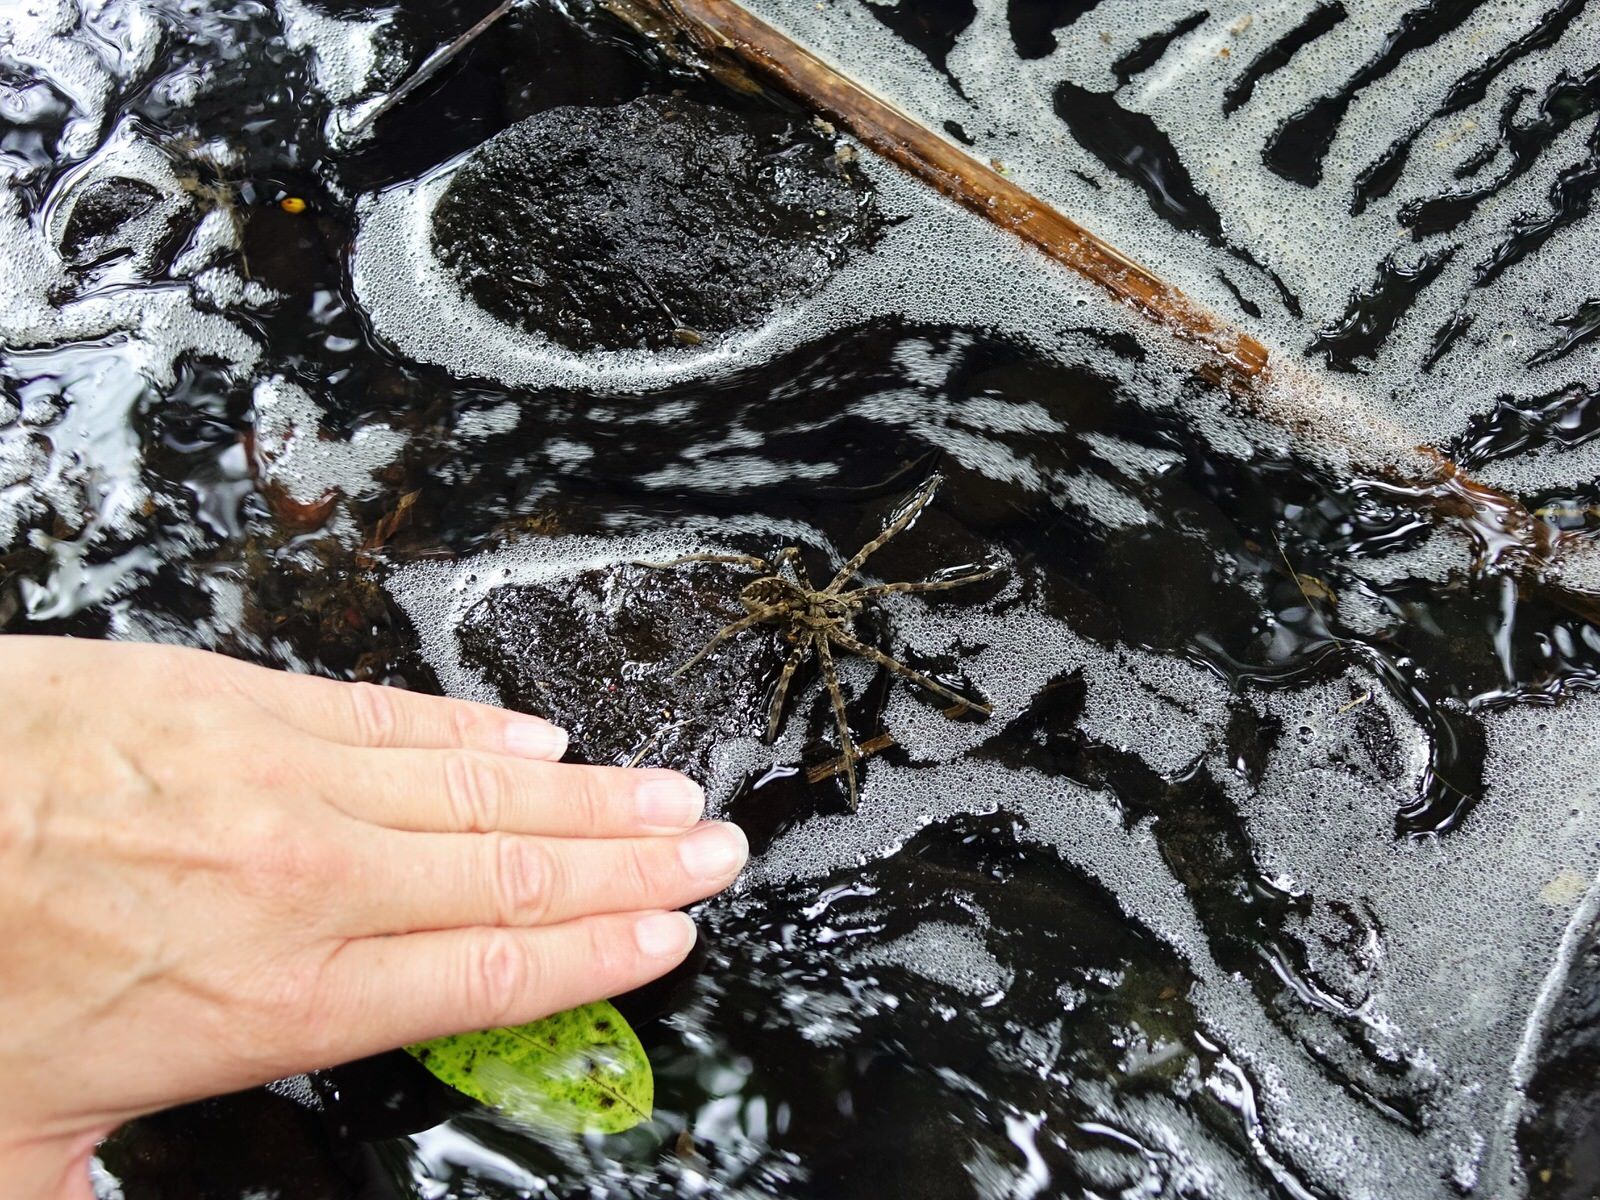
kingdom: Animalia
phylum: Arthropoda
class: Arachnida
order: Araneae
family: Pisauridae
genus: Dolomedes
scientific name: Dolomedes dondalei
